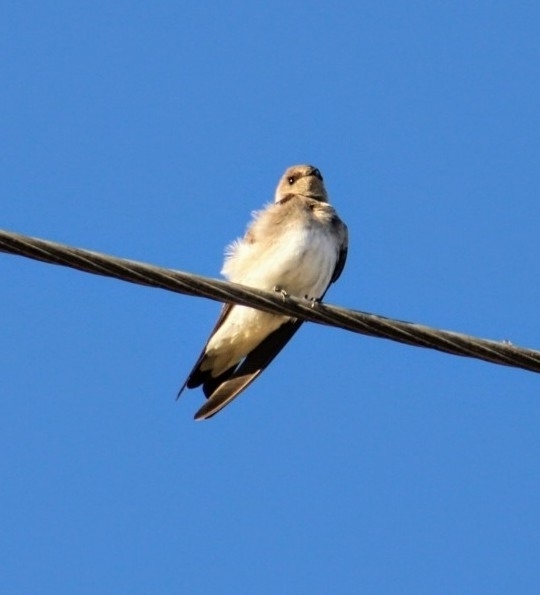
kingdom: Animalia
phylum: Chordata
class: Aves
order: Passeriformes
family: Hirundinidae
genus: Stelgidopteryx
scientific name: Stelgidopteryx serripennis
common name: Northern rough-winged swallow
